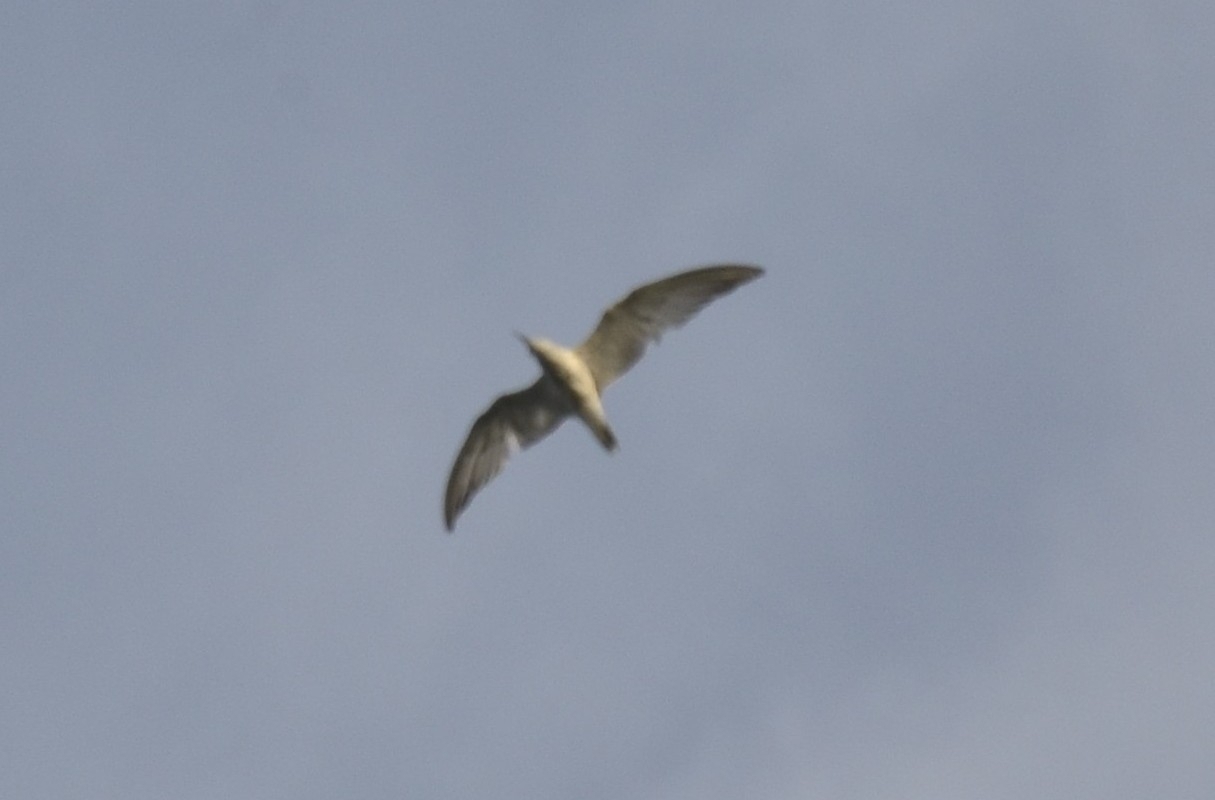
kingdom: Animalia
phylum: Chordata
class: Aves
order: Charadriiformes
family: Laridae
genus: Chlidonias
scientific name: Chlidonias hybrida
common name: Whiskered tern
